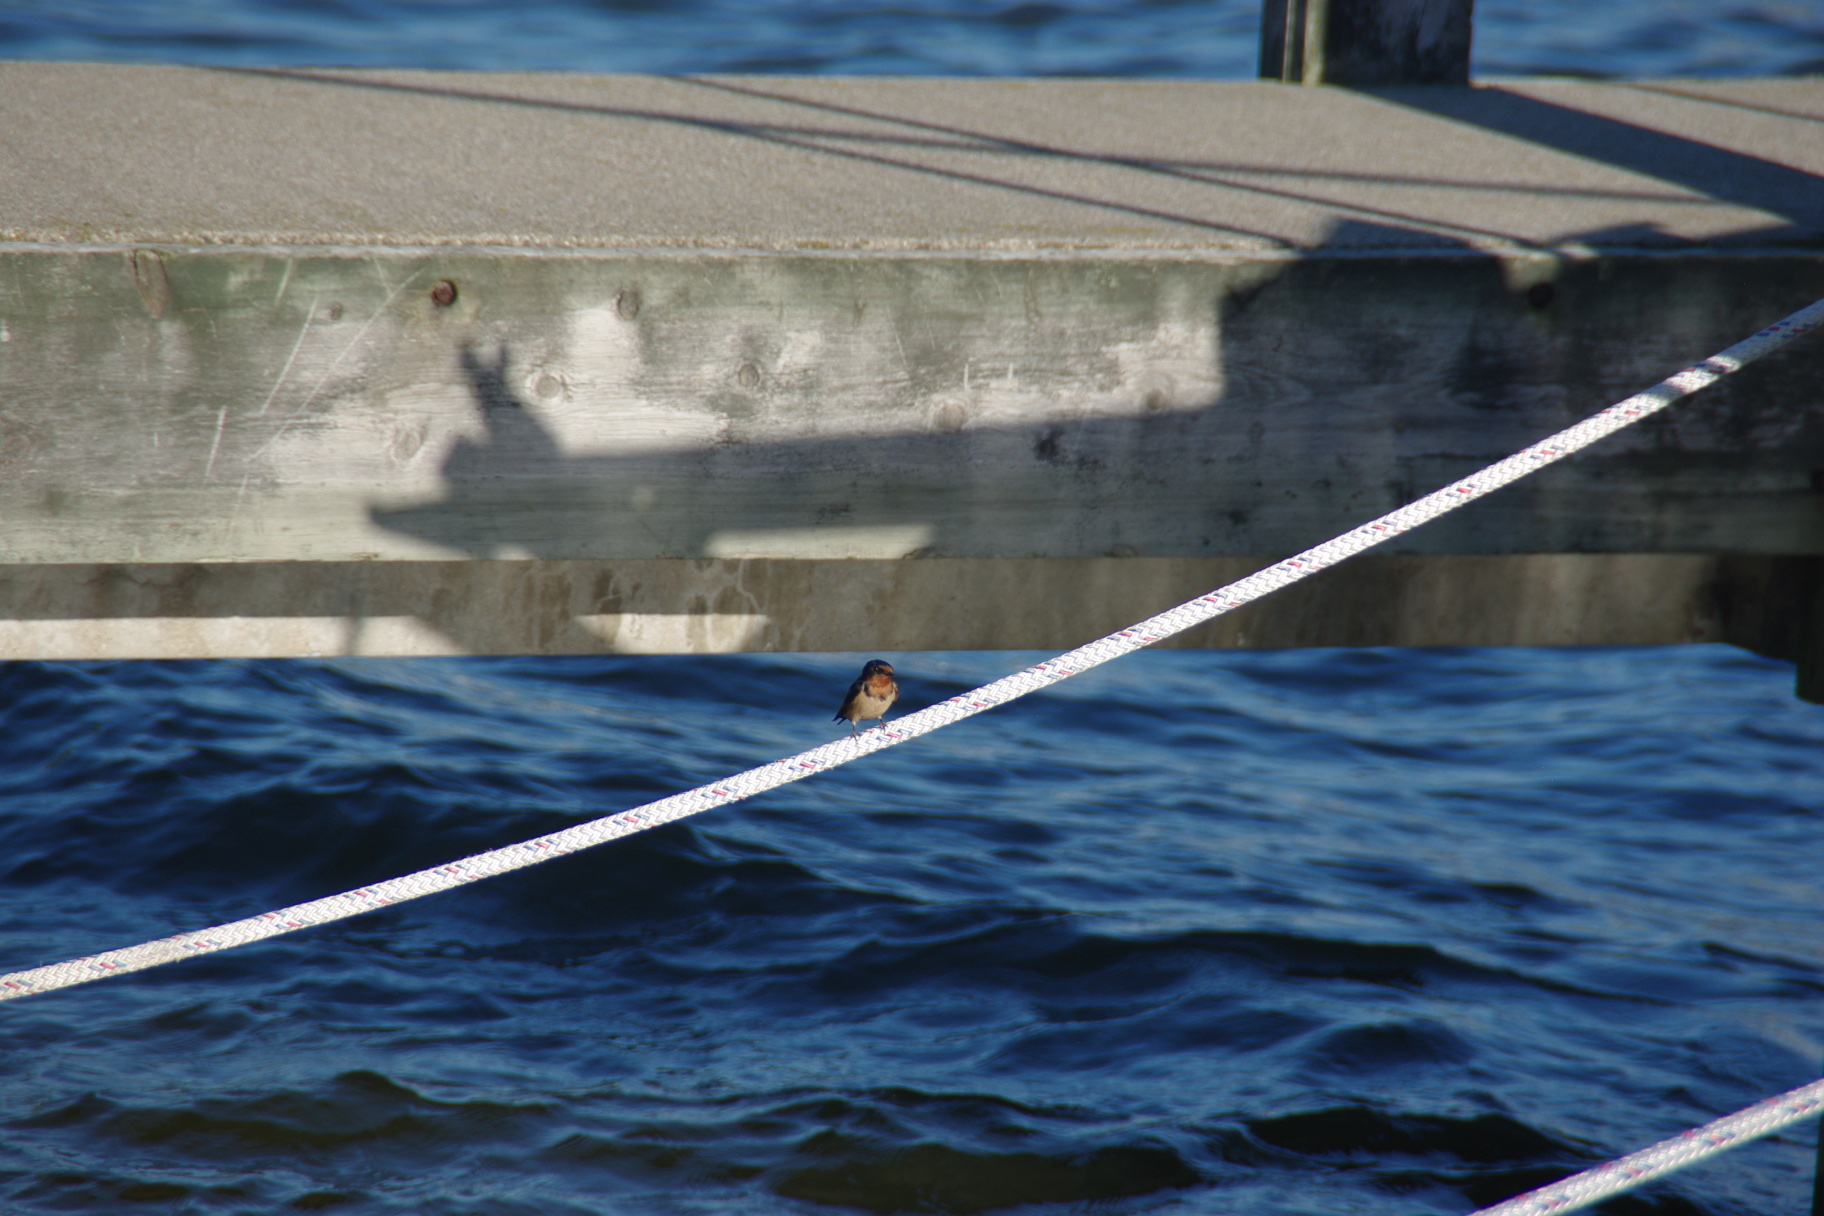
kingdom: Animalia
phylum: Chordata
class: Aves
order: Passeriformes
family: Hirundinidae
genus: Hirundo
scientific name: Hirundo rustica
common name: Barn swallow
